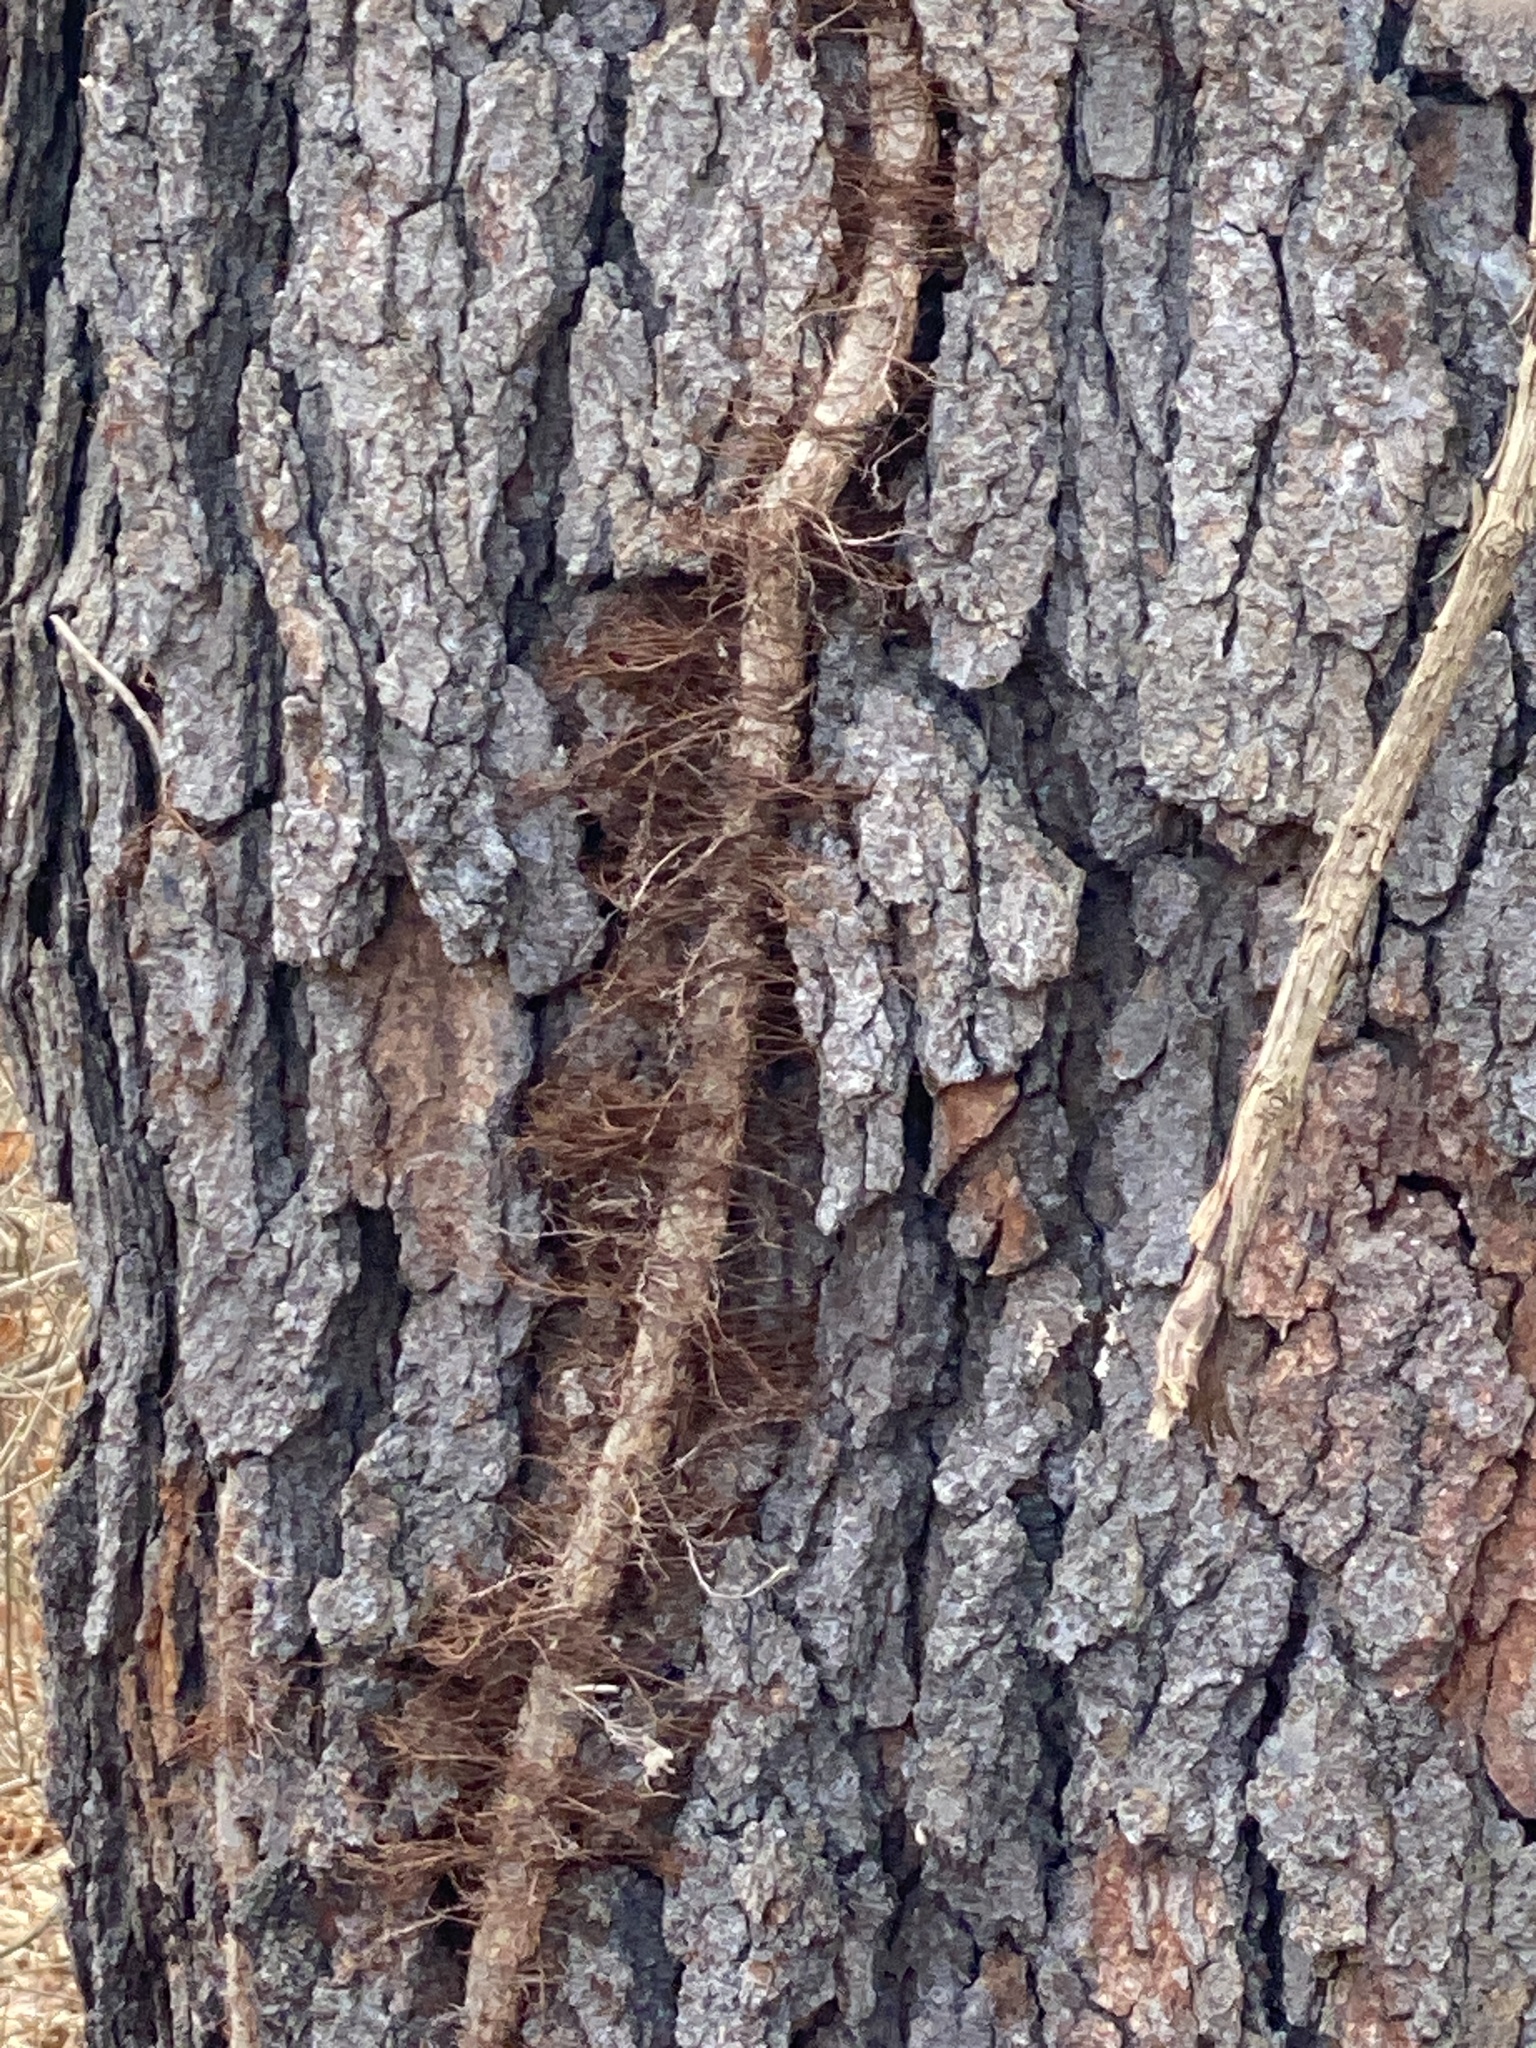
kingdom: Plantae
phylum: Tracheophyta
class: Magnoliopsida
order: Sapindales
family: Anacardiaceae
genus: Toxicodendron
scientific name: Toxicodendron radicans
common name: Poison ivy
